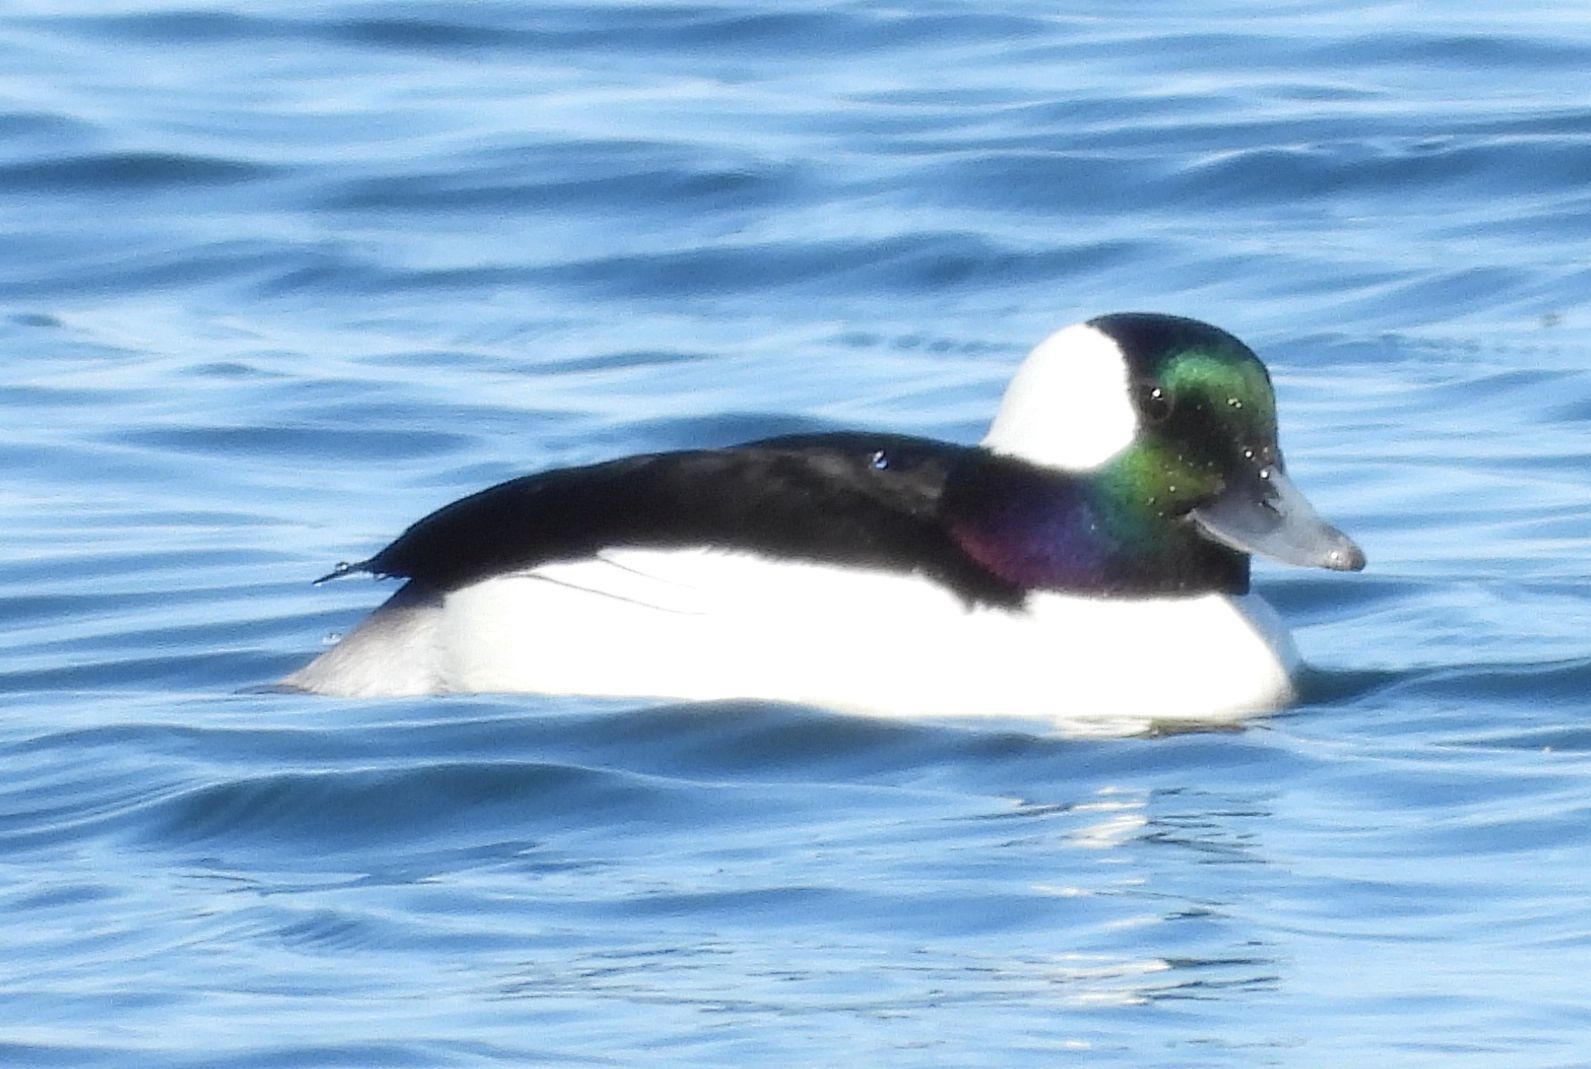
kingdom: Animalia
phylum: Chordata
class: Aves
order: Anseriformes
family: Anatidae
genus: Bucephala
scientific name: Bucephala albeola
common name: Bufflehead
